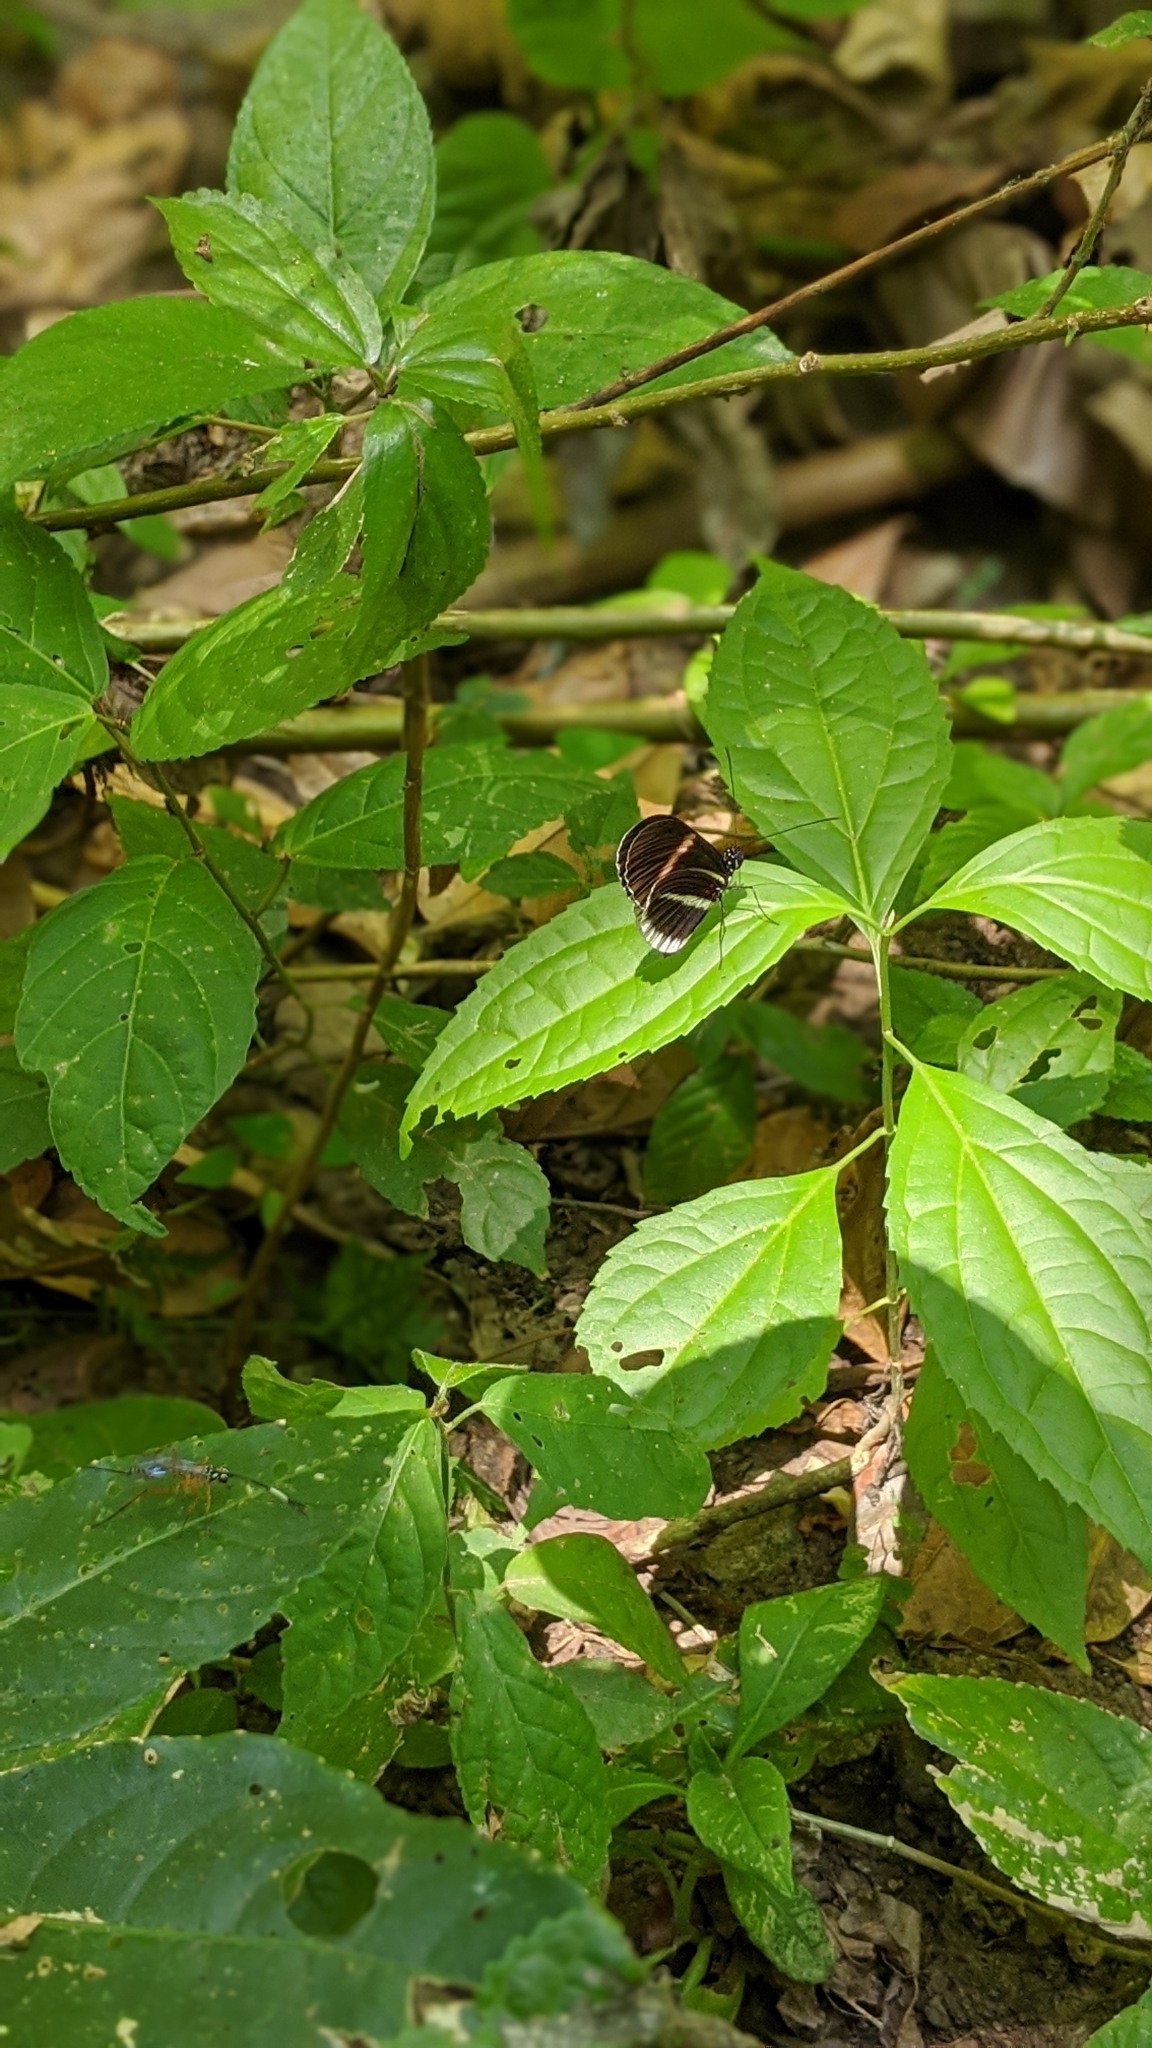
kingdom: Animalia
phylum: Arthropoda
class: Insecta
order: Lepidoptera
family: Nymphalidae
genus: Heliconius
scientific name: Heliconius erato
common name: Common patch longwing
